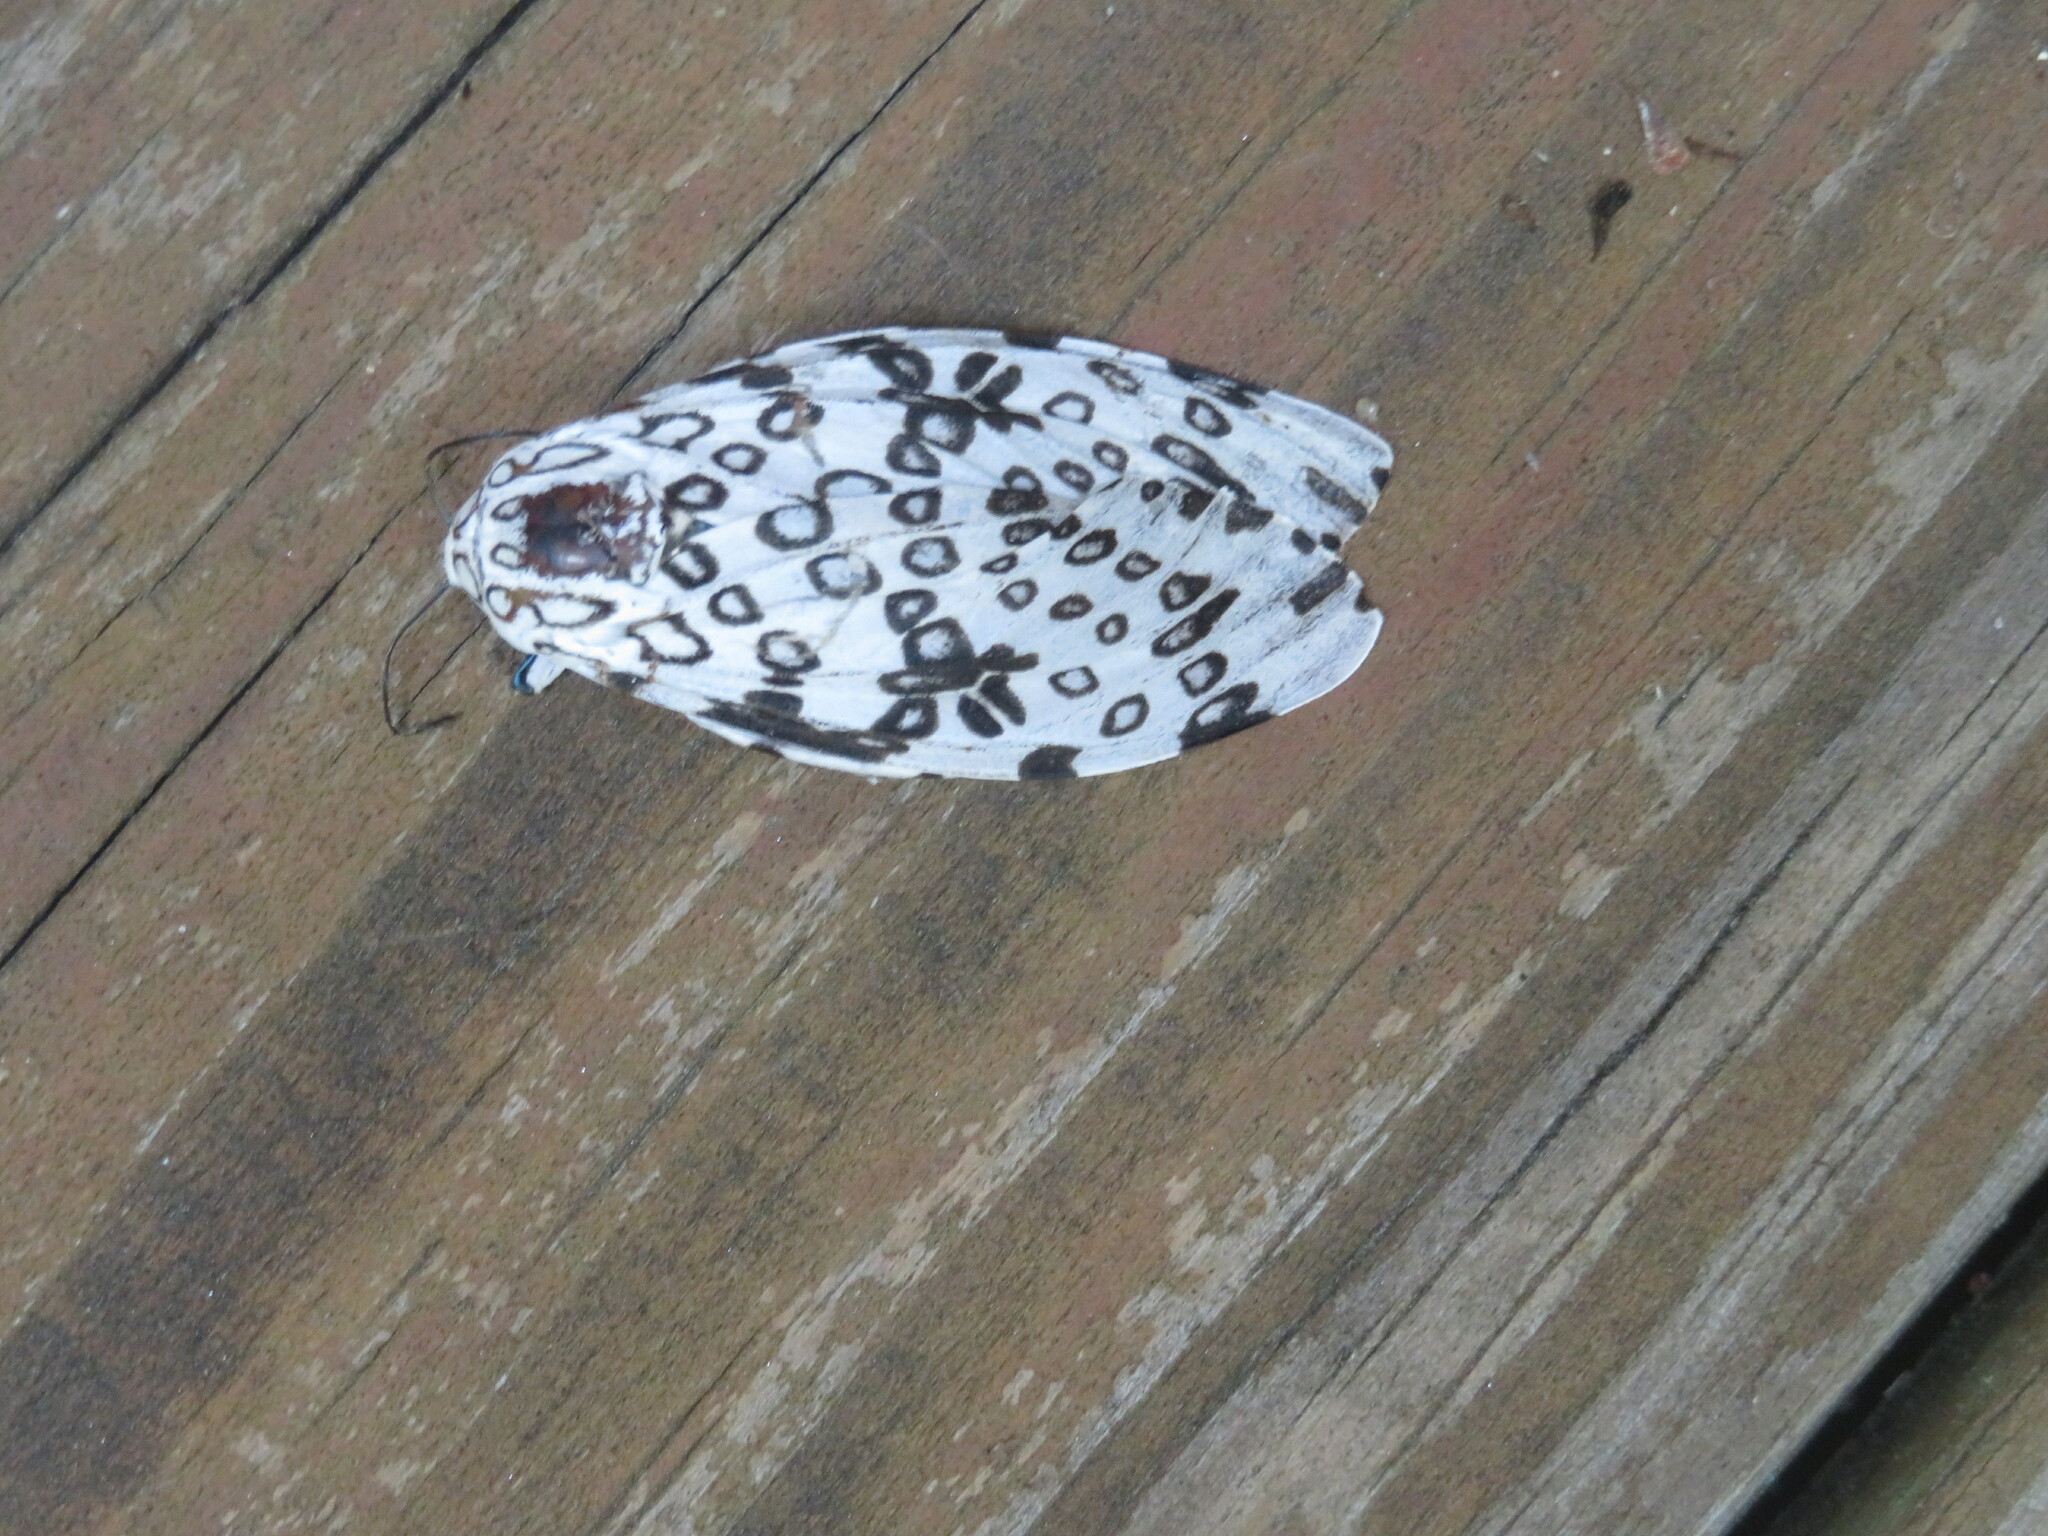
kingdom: Animalia
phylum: Arthropoda
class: Insecta
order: Lepidoptera
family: Erebidae
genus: Hypercompe
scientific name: Hypercompe scribonia
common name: Giant leopard moth
